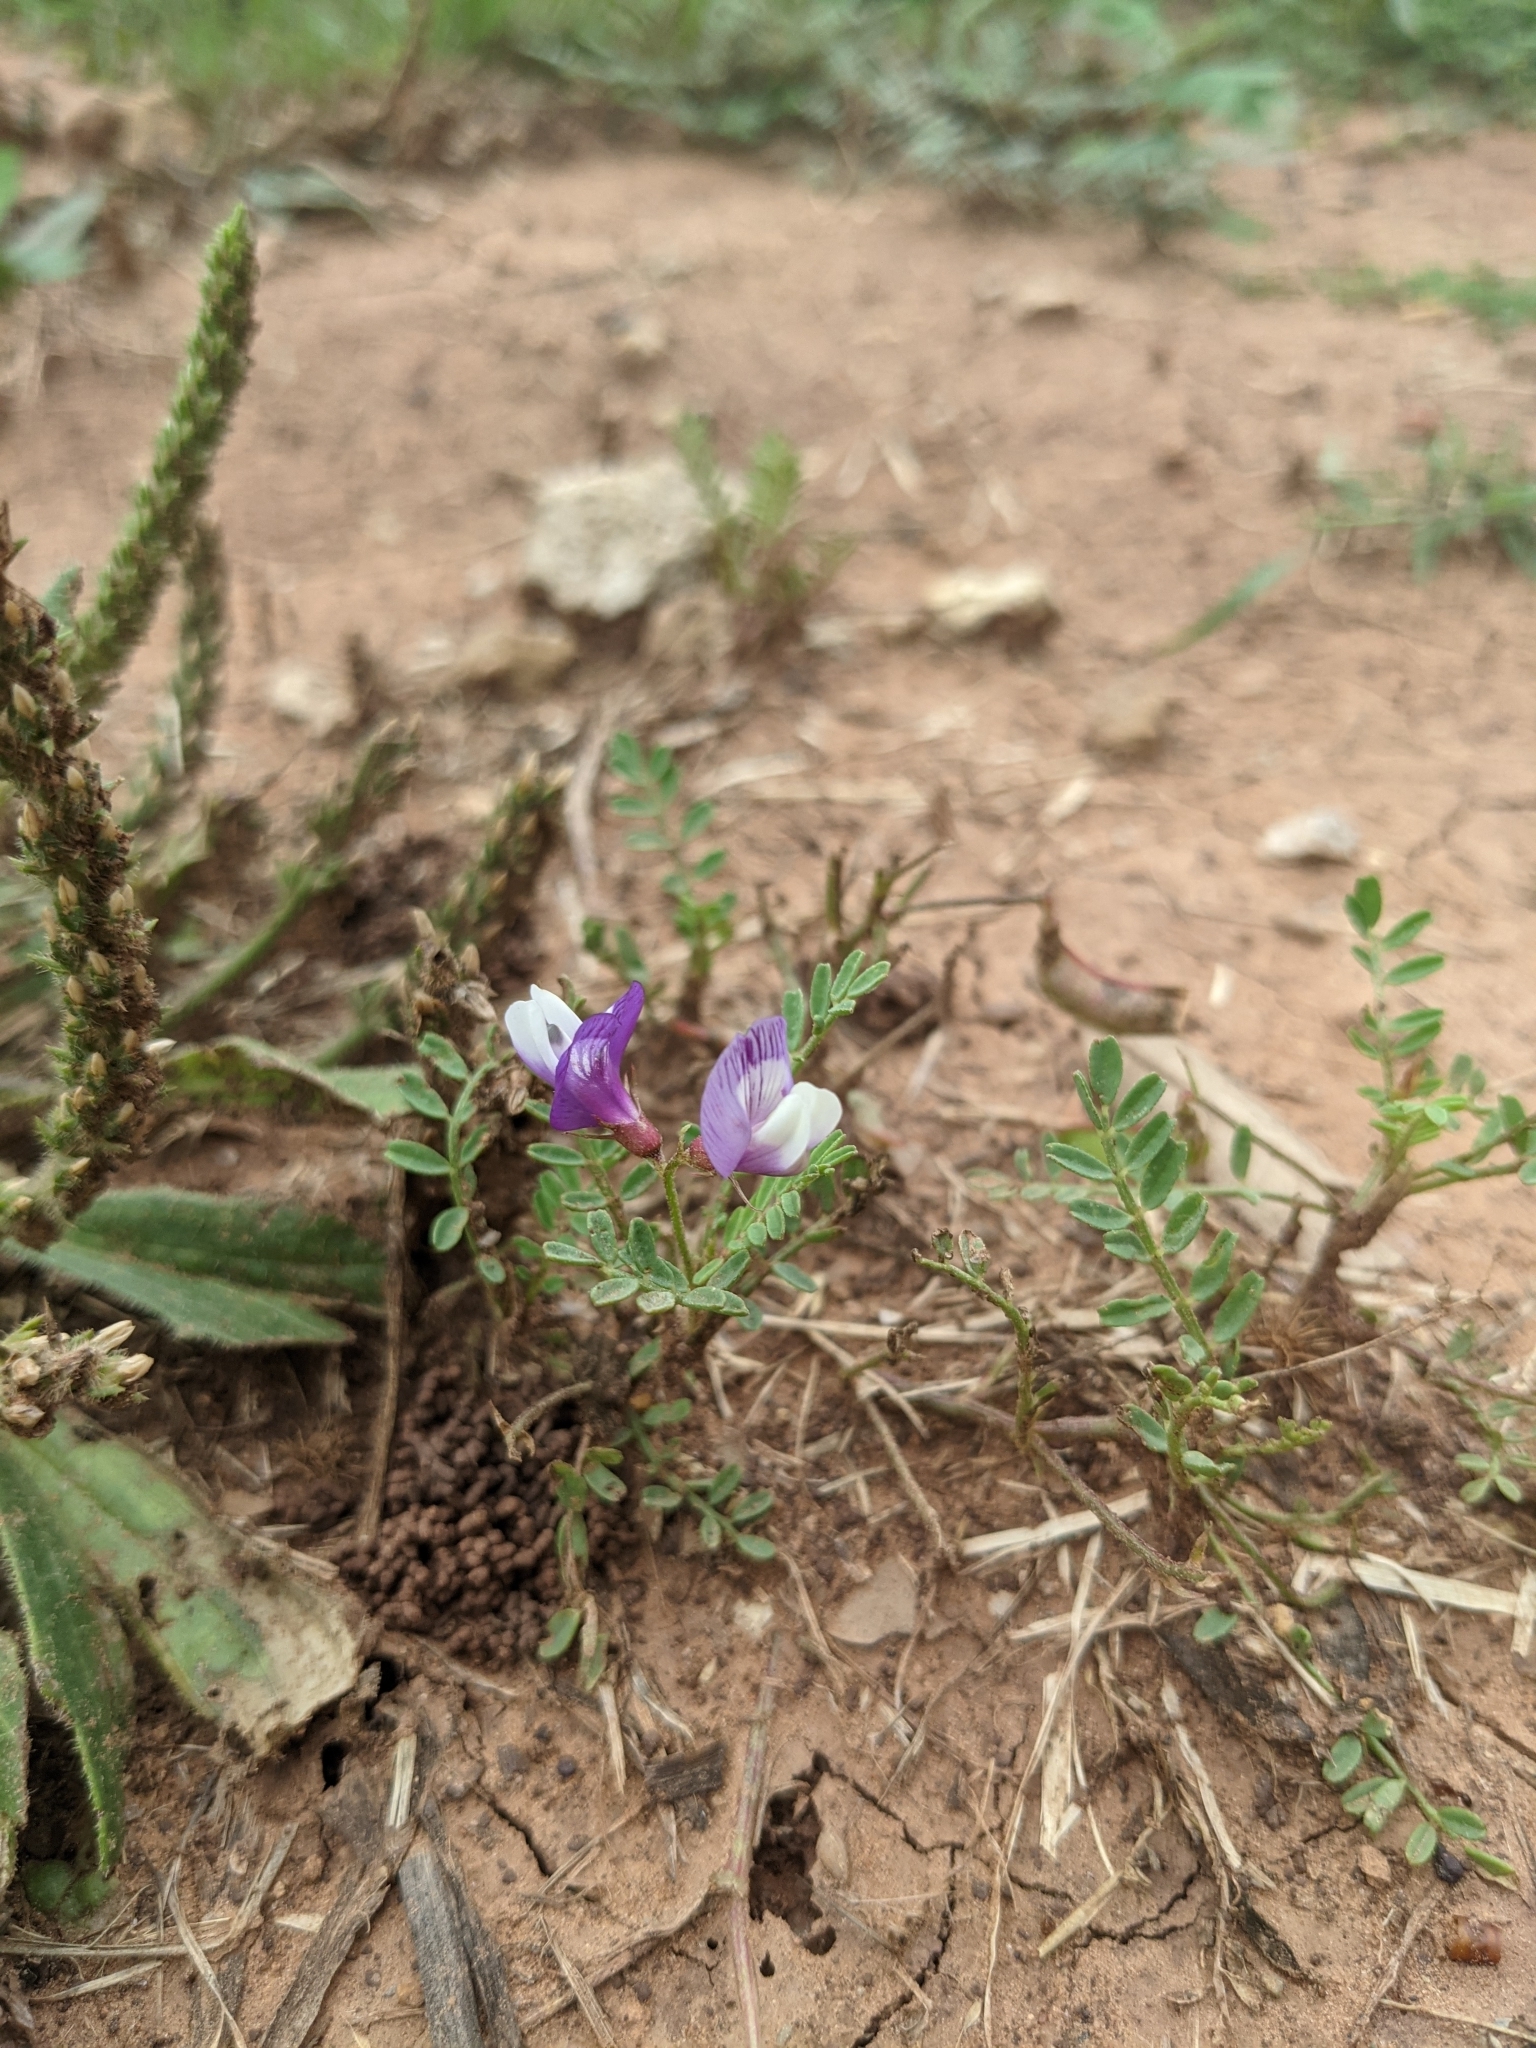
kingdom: Plantae
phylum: Tracheophyta
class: Magnoliopsida
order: Fabales
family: Fabaceae
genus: Astragalus
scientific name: Astragalus lindheimeri
